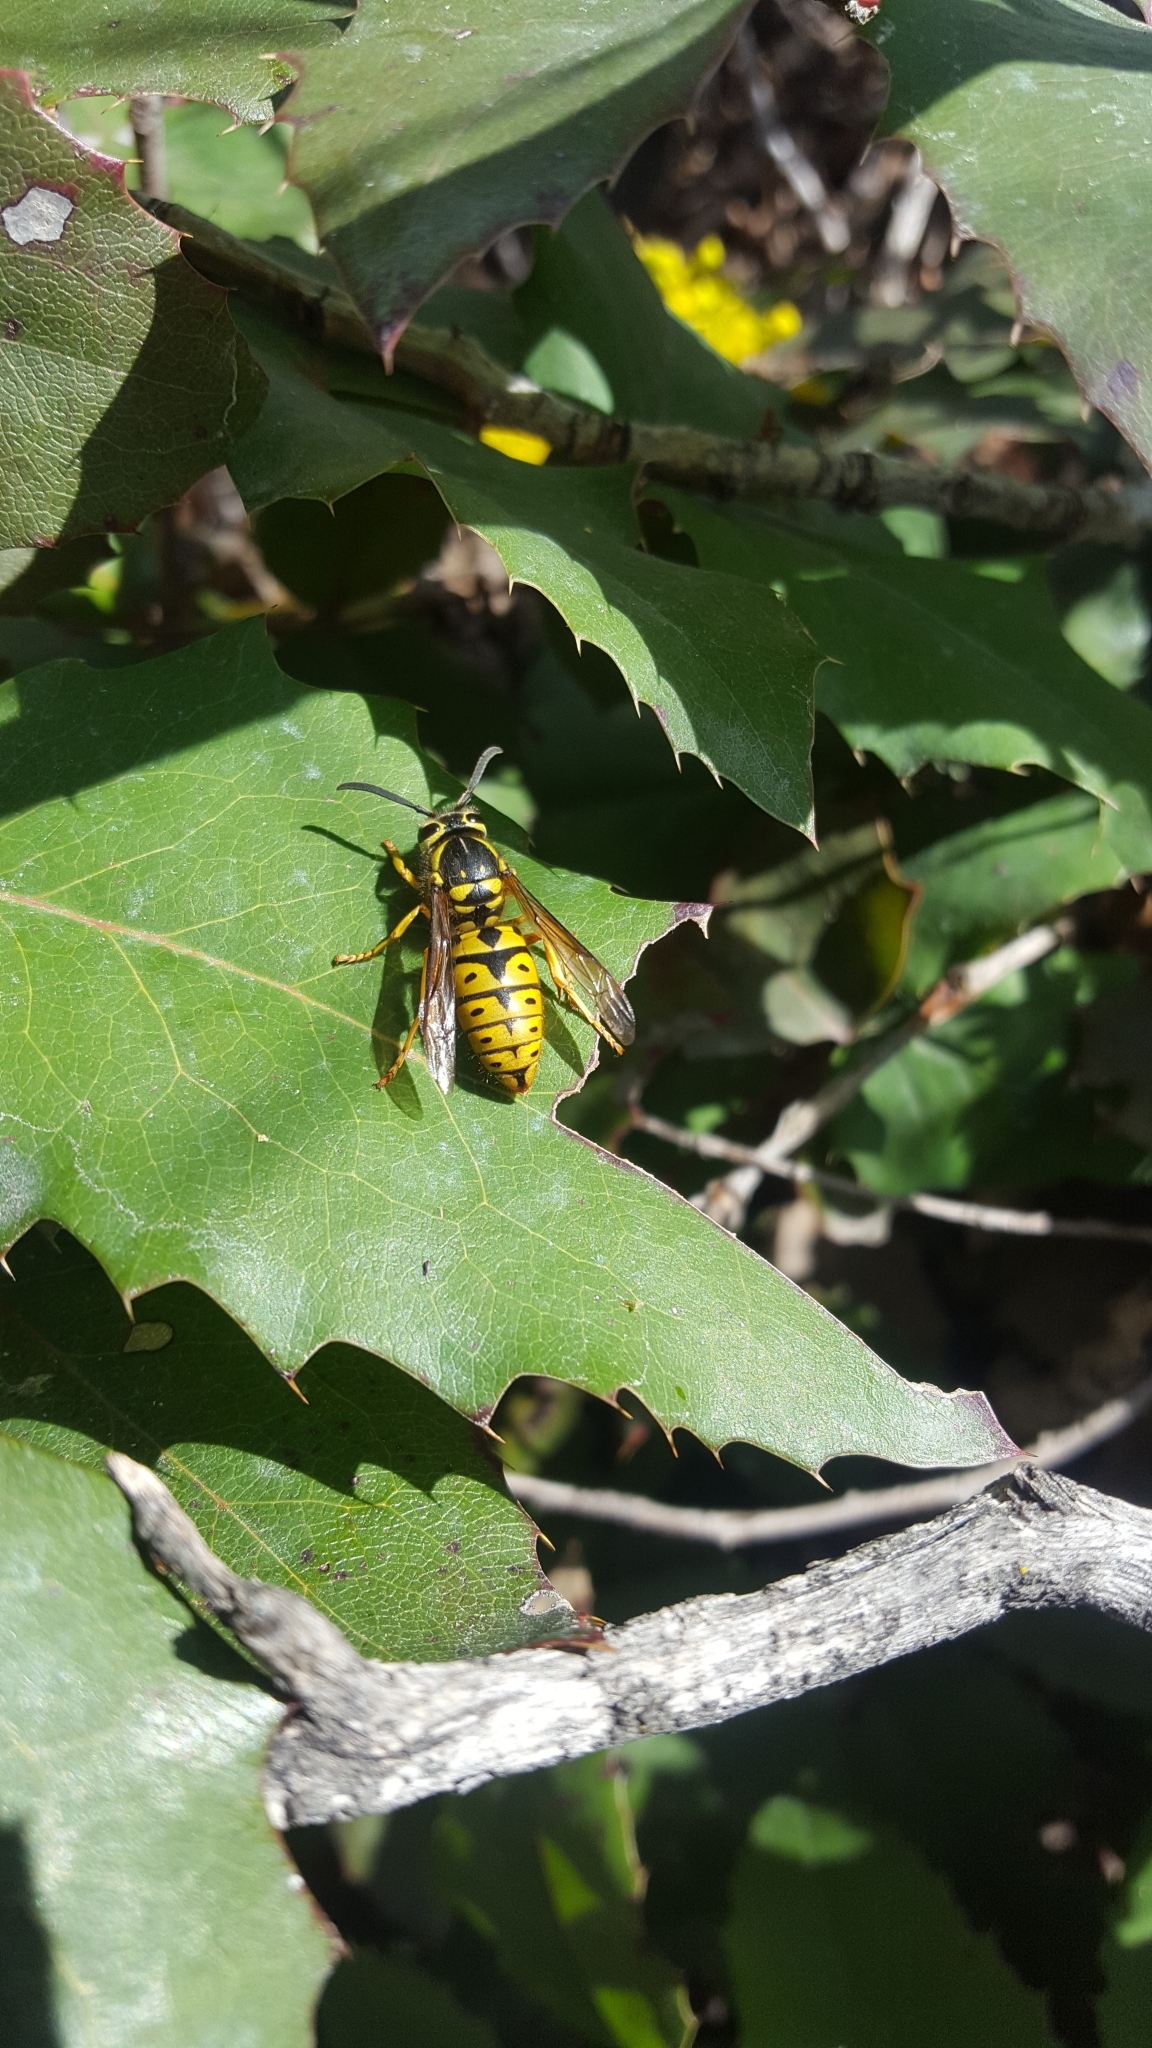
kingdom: Animalia
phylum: Arthropoda
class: Insecta
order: Hymenoptera
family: Vespidae
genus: Vespula
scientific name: Vespula pensylvanica
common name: Western yellowjacket
